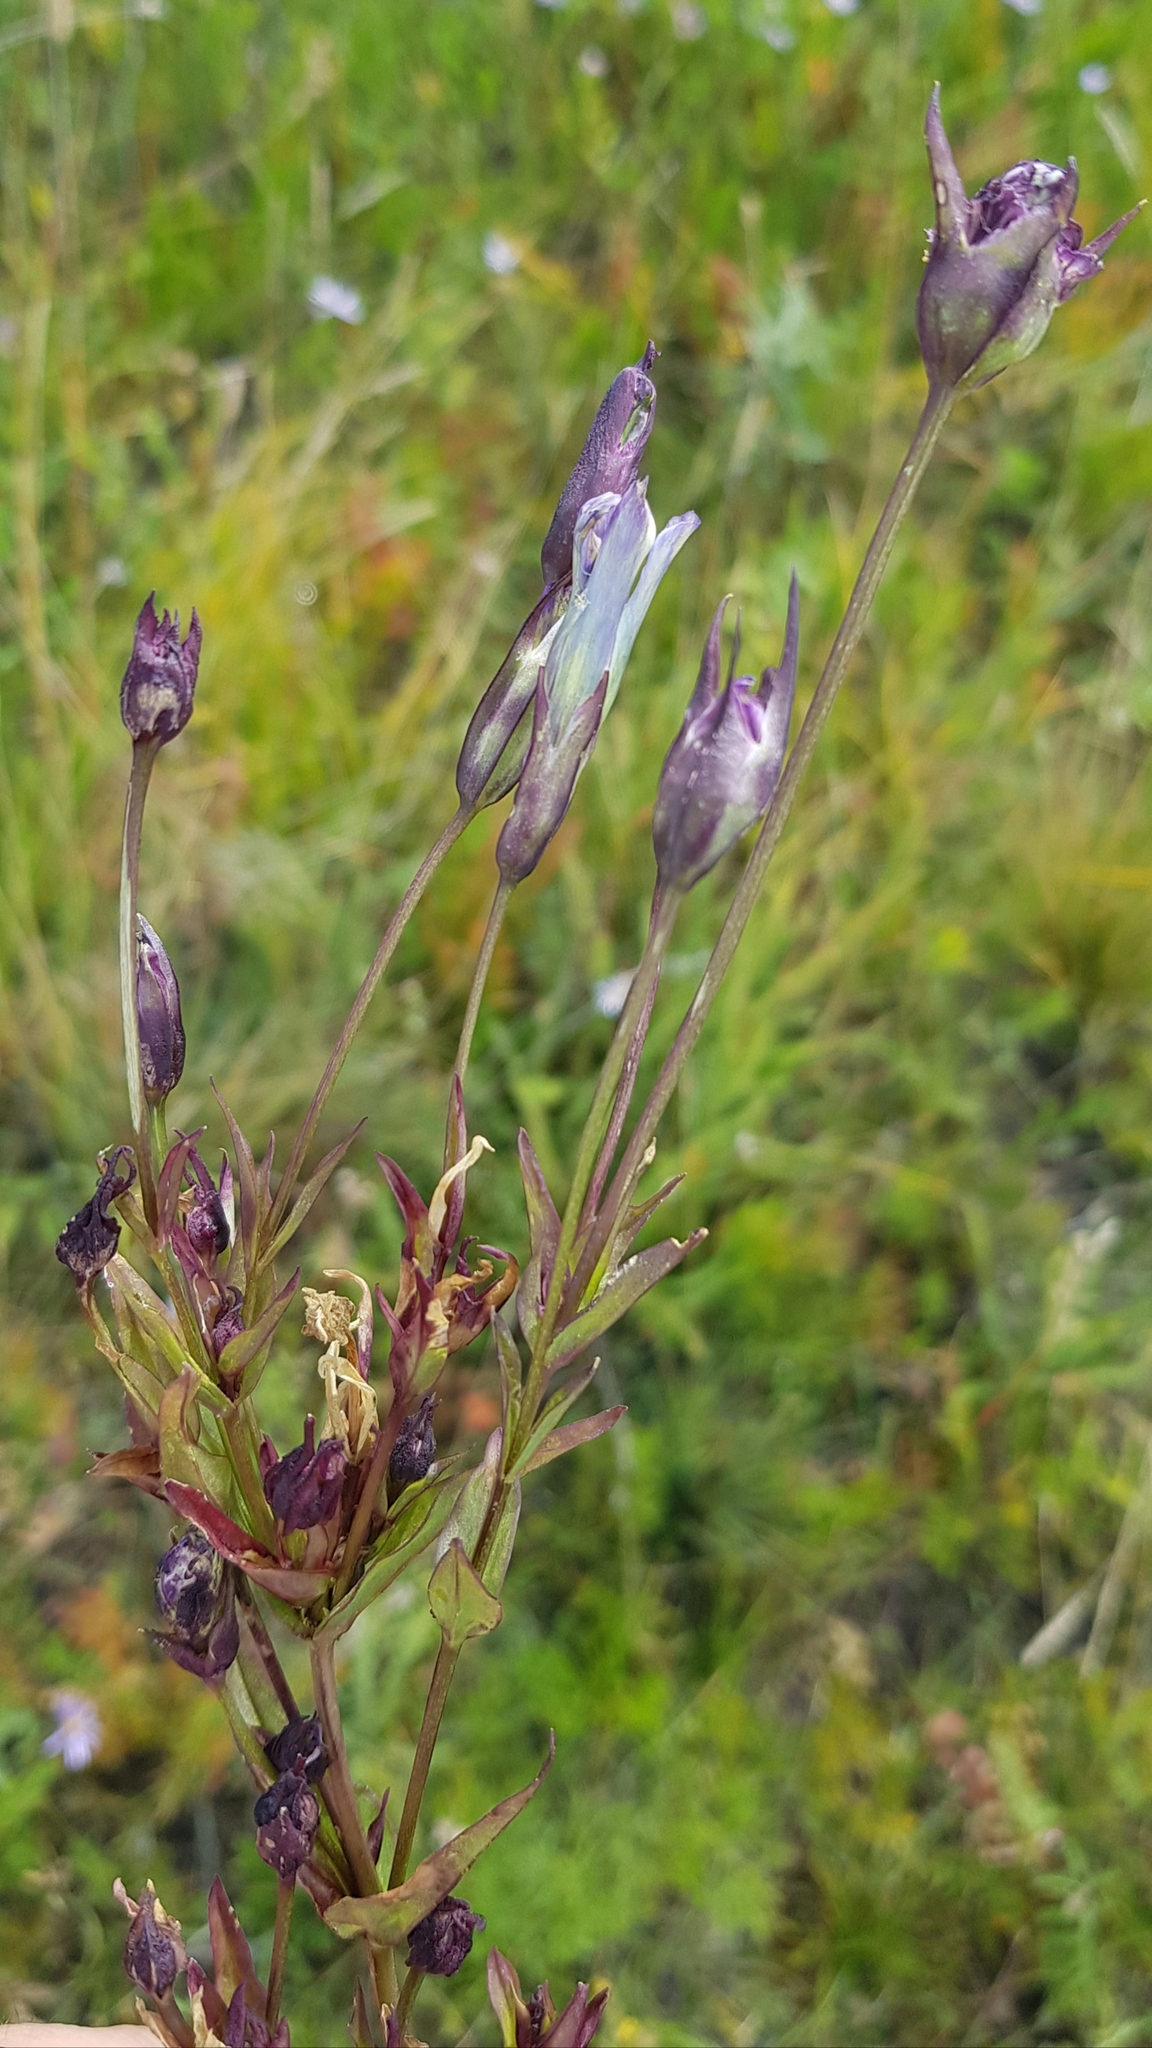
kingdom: Plantae
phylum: Tracheophyta
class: Magnoliopsida
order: Gentianales
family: Gentianaceae
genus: Gentianopsis
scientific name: Gentianopsis barbata
